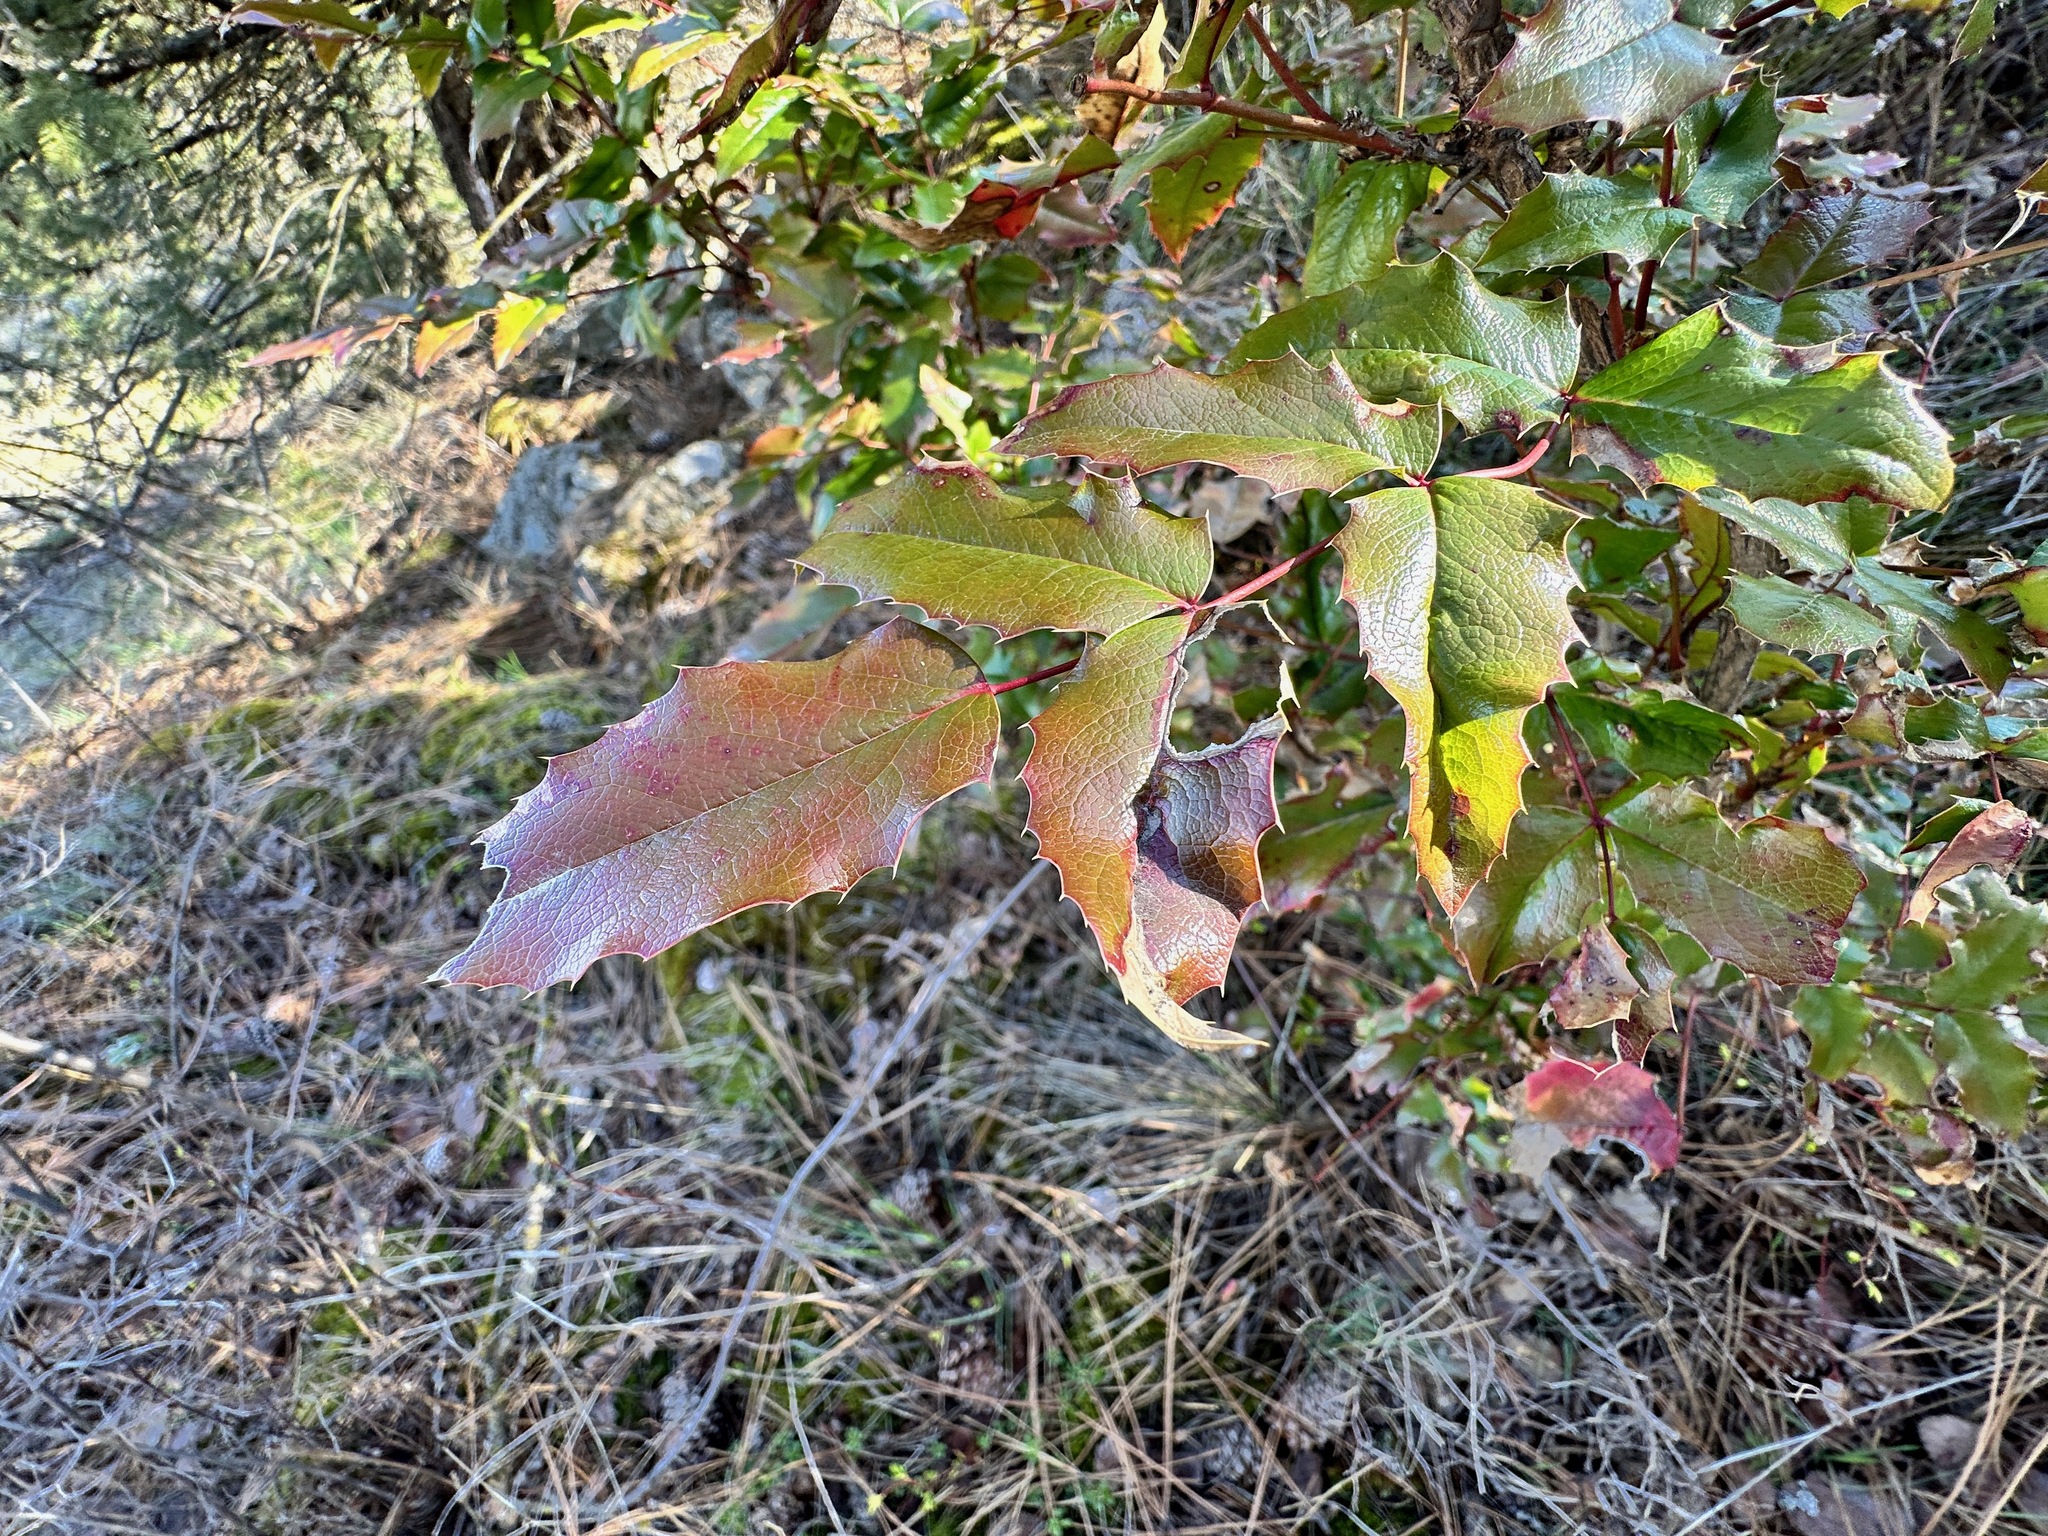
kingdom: Plantae
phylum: Tracheophyta
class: Magnoliopsida
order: Ranunculales
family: Berberidaceae
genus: Mahonia
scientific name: Mahonia aquifolium
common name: Oregon-grape
